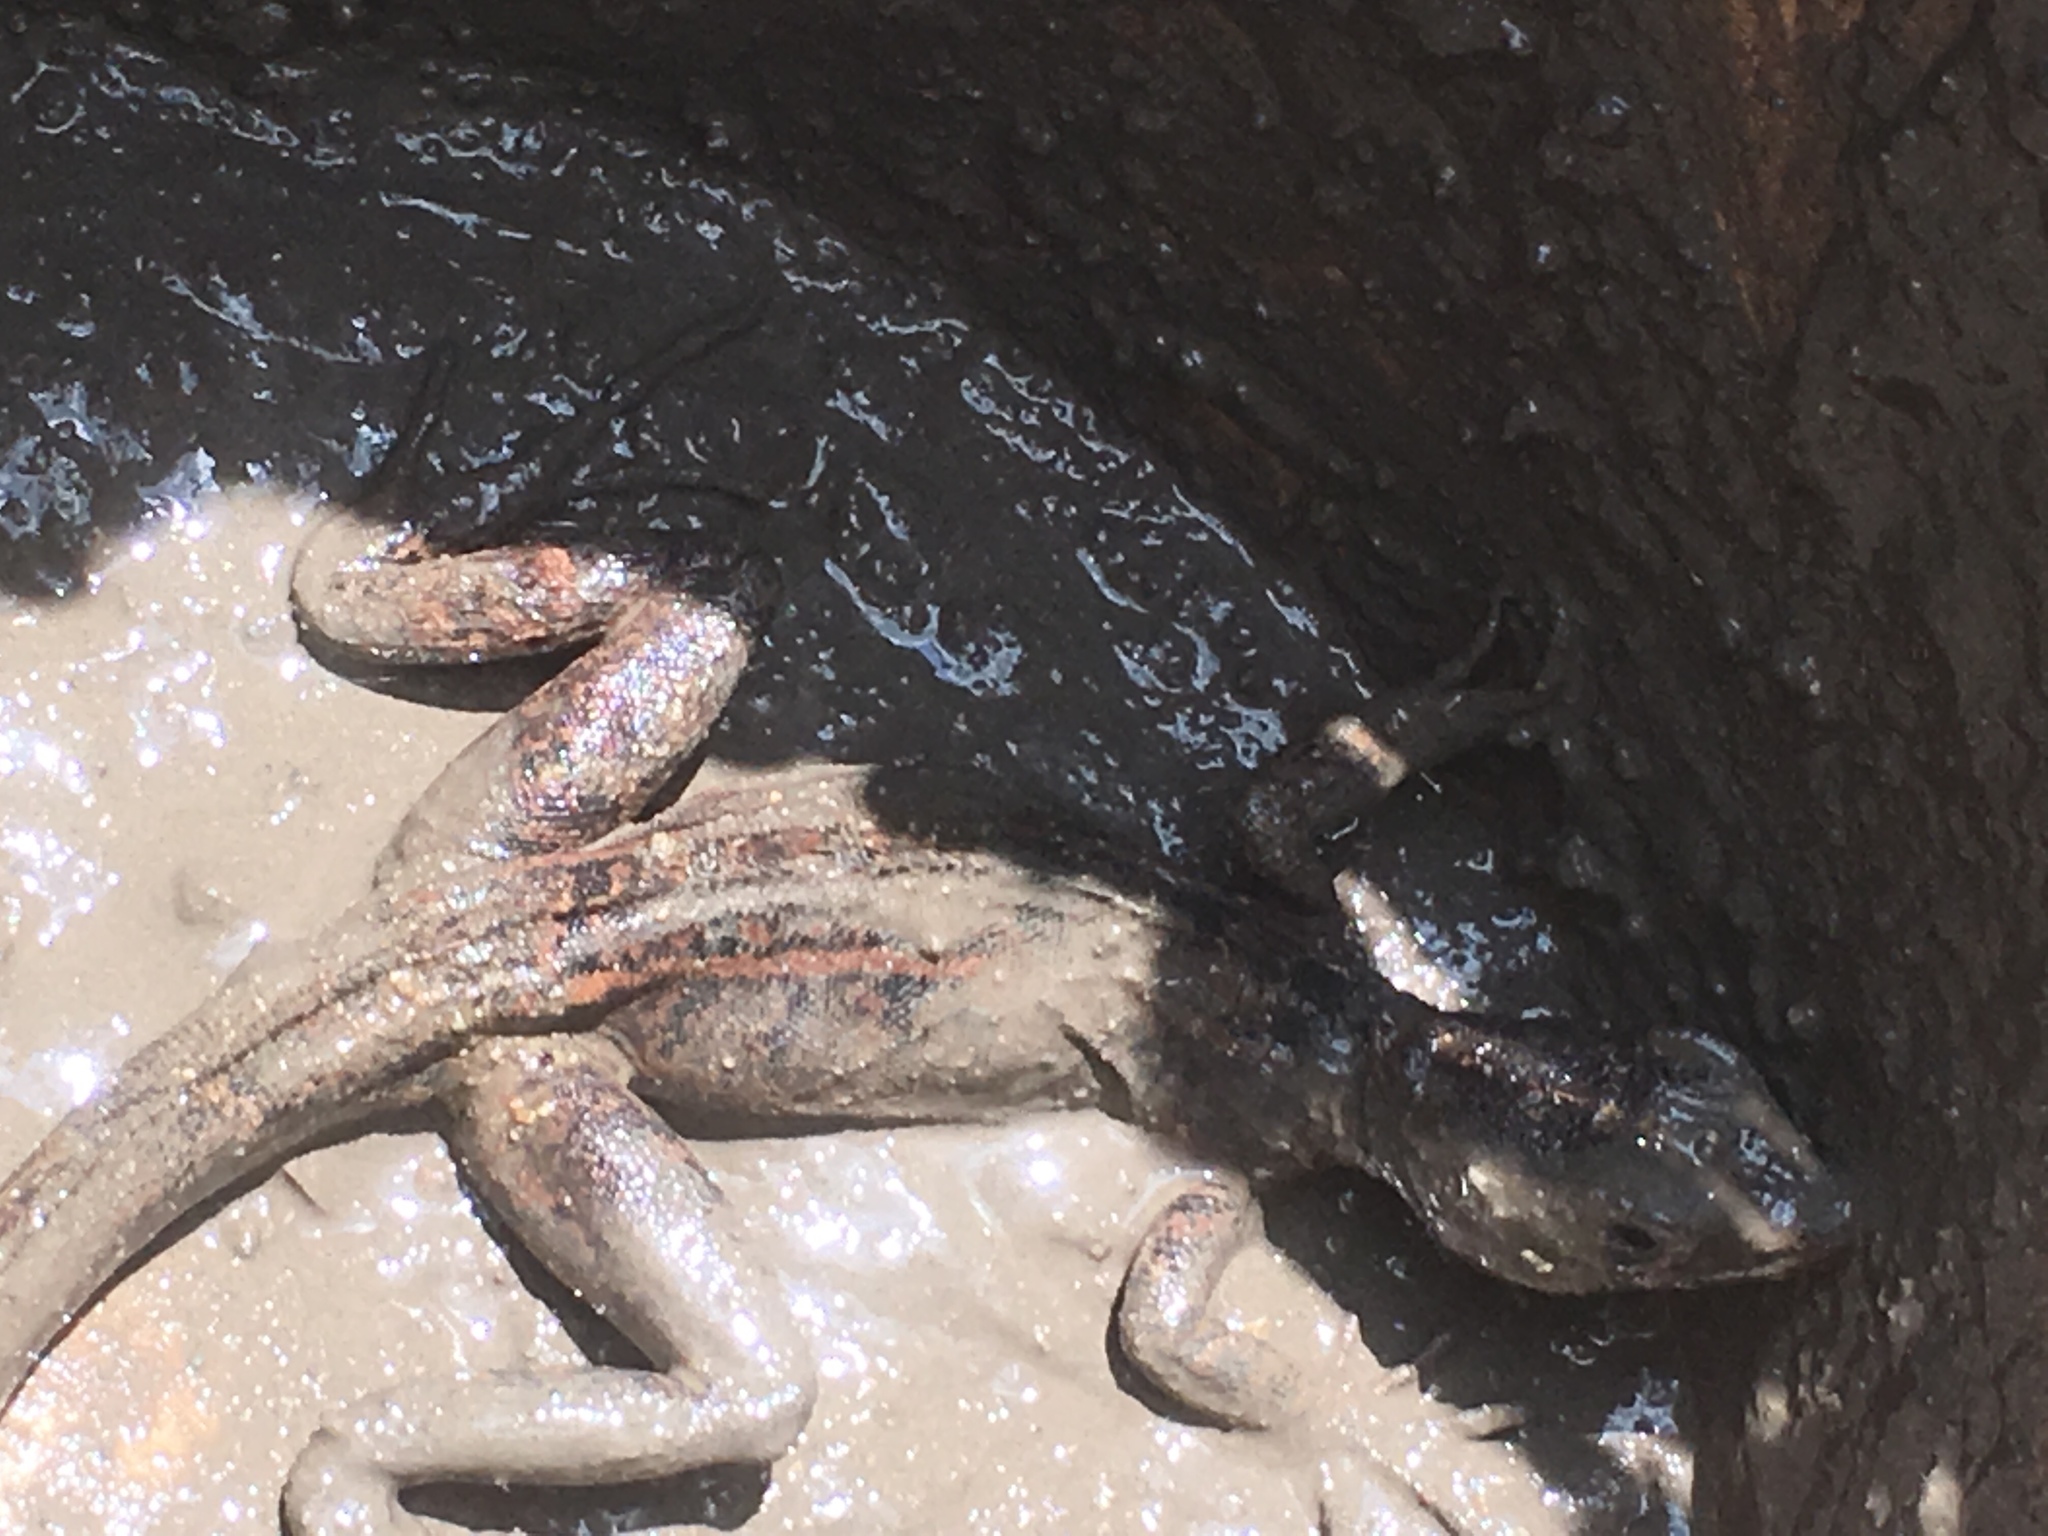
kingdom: Animalia
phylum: Chordata
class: Squamata
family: Corytophanidae
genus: Basiliscus
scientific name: Basiliscus vittatus
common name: Brown basilisk
